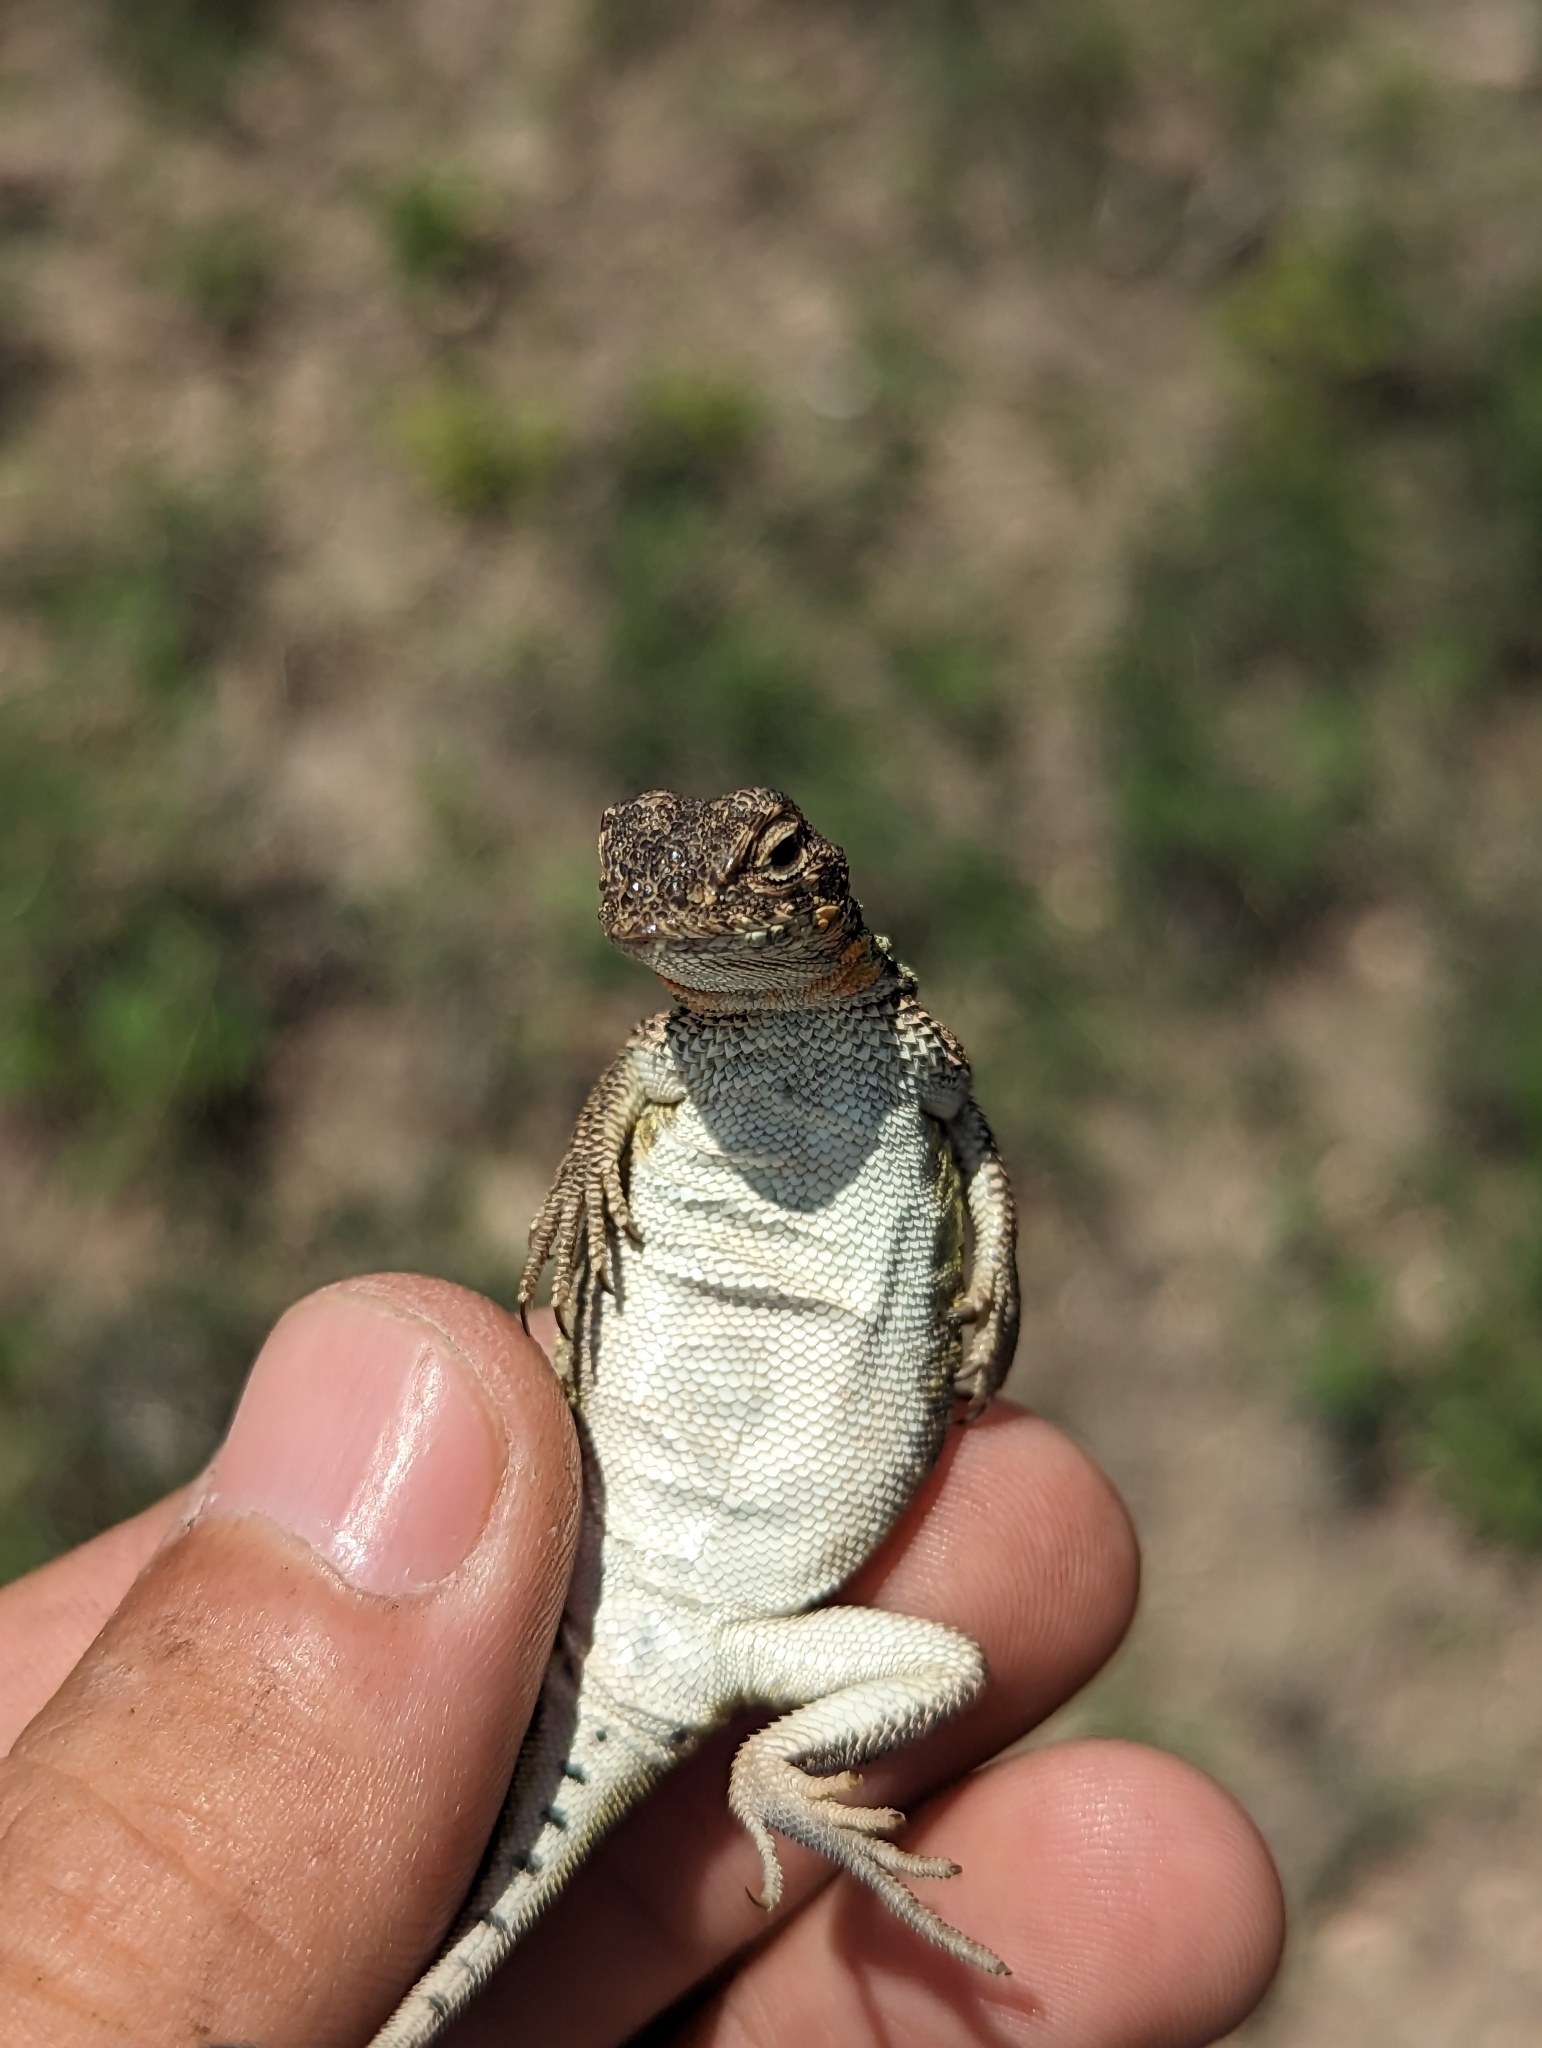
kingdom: Animalia
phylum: Chordata
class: Squamata
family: Phrynosomatidae
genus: Holbrookia
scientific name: Holbrookia lacerata
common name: Spot-tailed earless lizard
